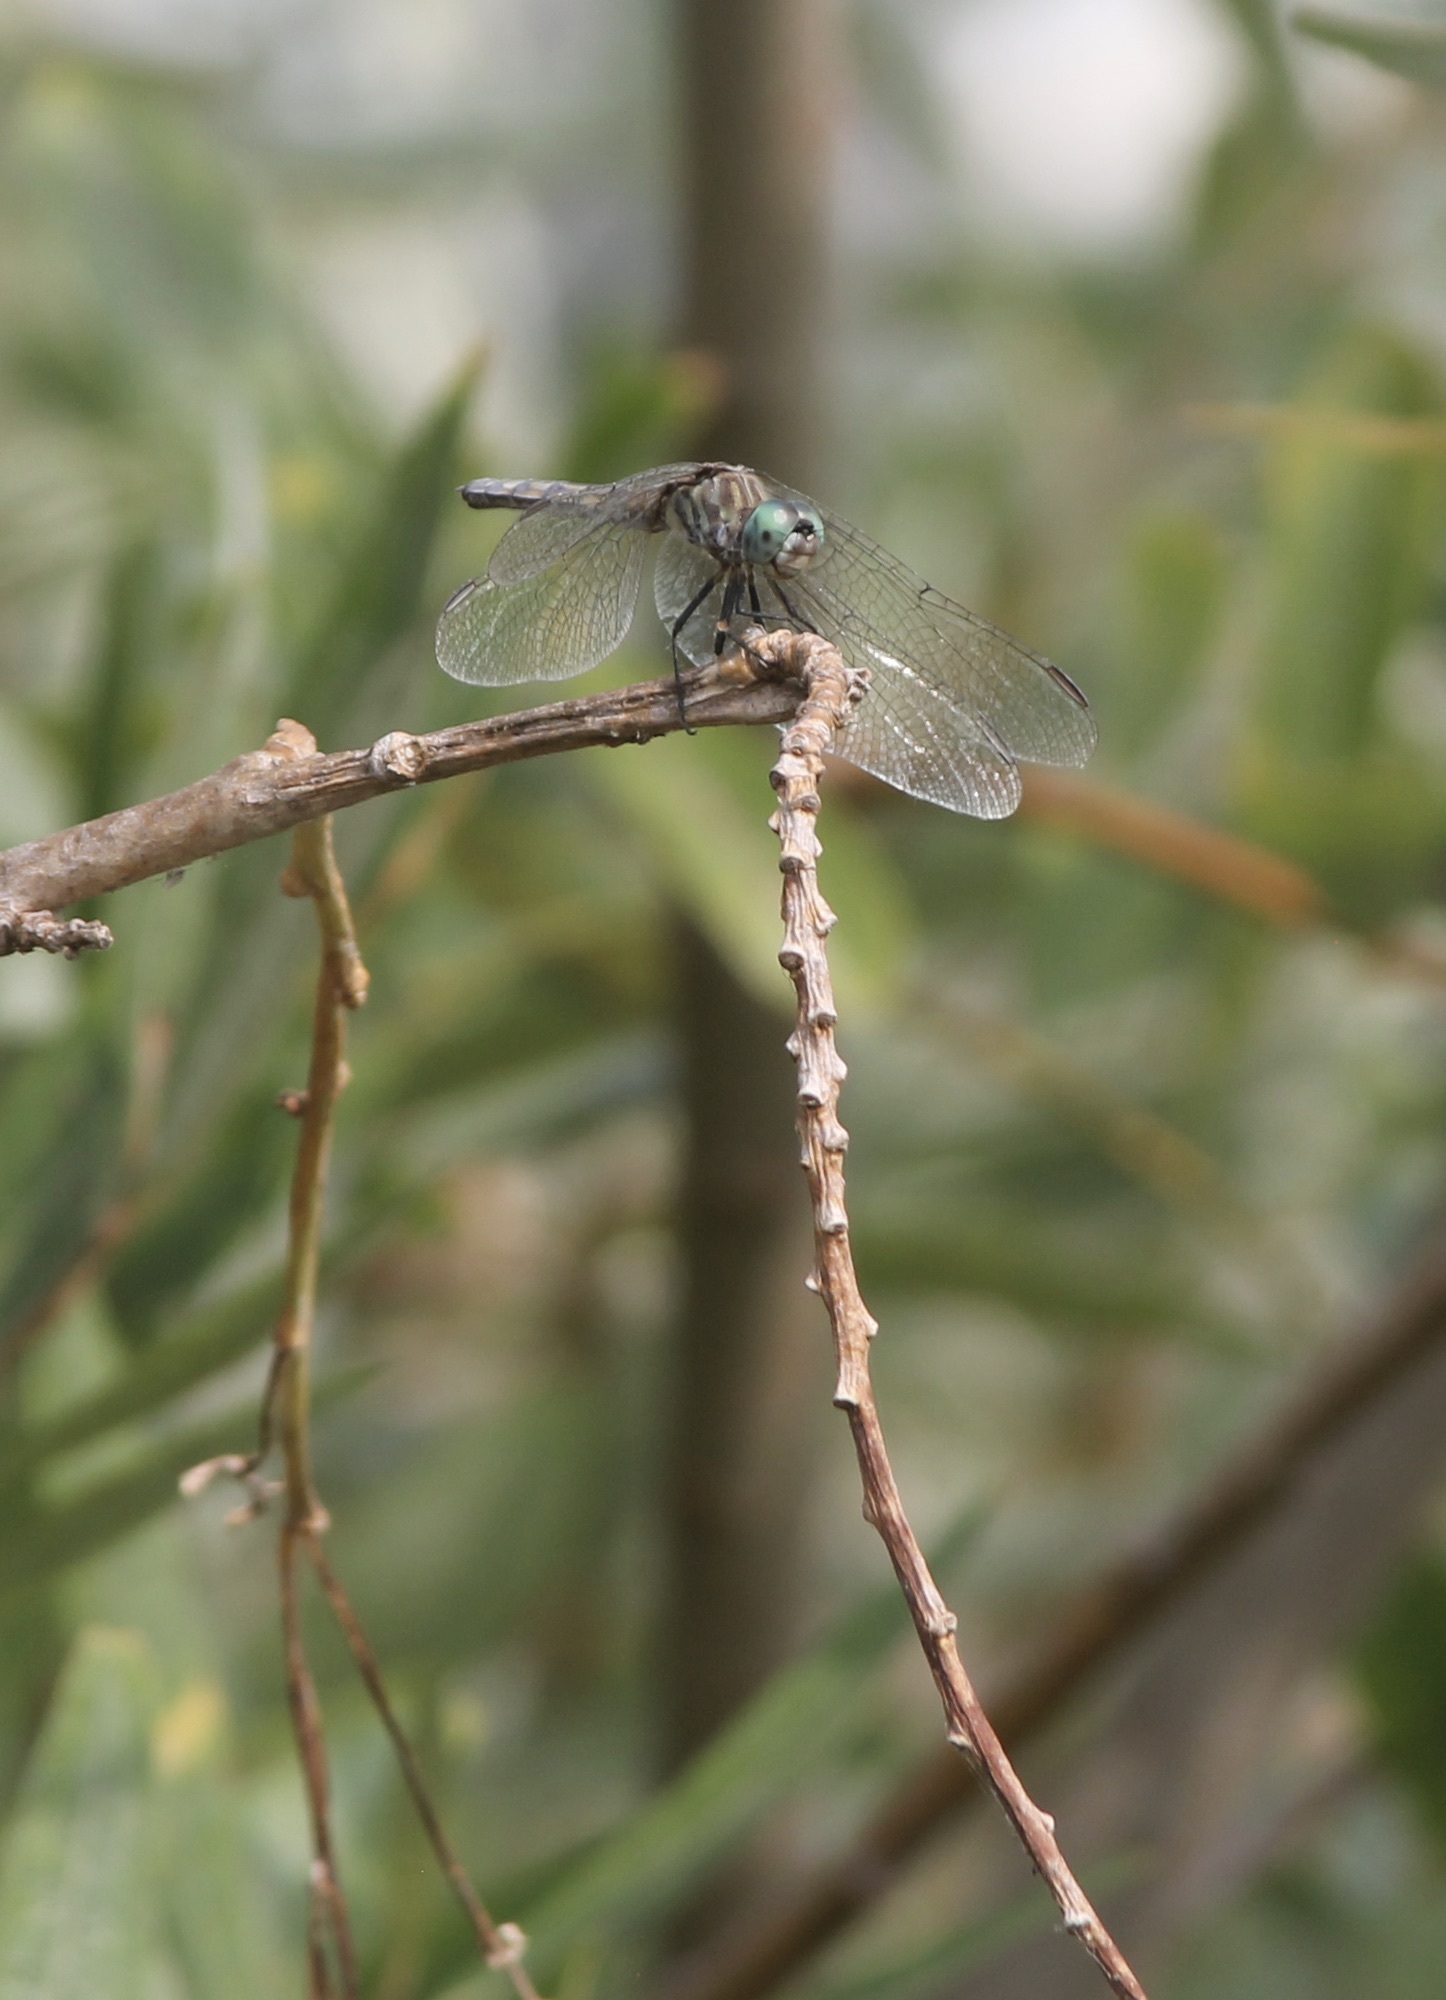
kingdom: Animalia
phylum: Arthropoda
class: Insecta
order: Odonata
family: Libellulidae
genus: Pachydiplax
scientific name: Pachydiplax longipennis
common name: Blue dasher
